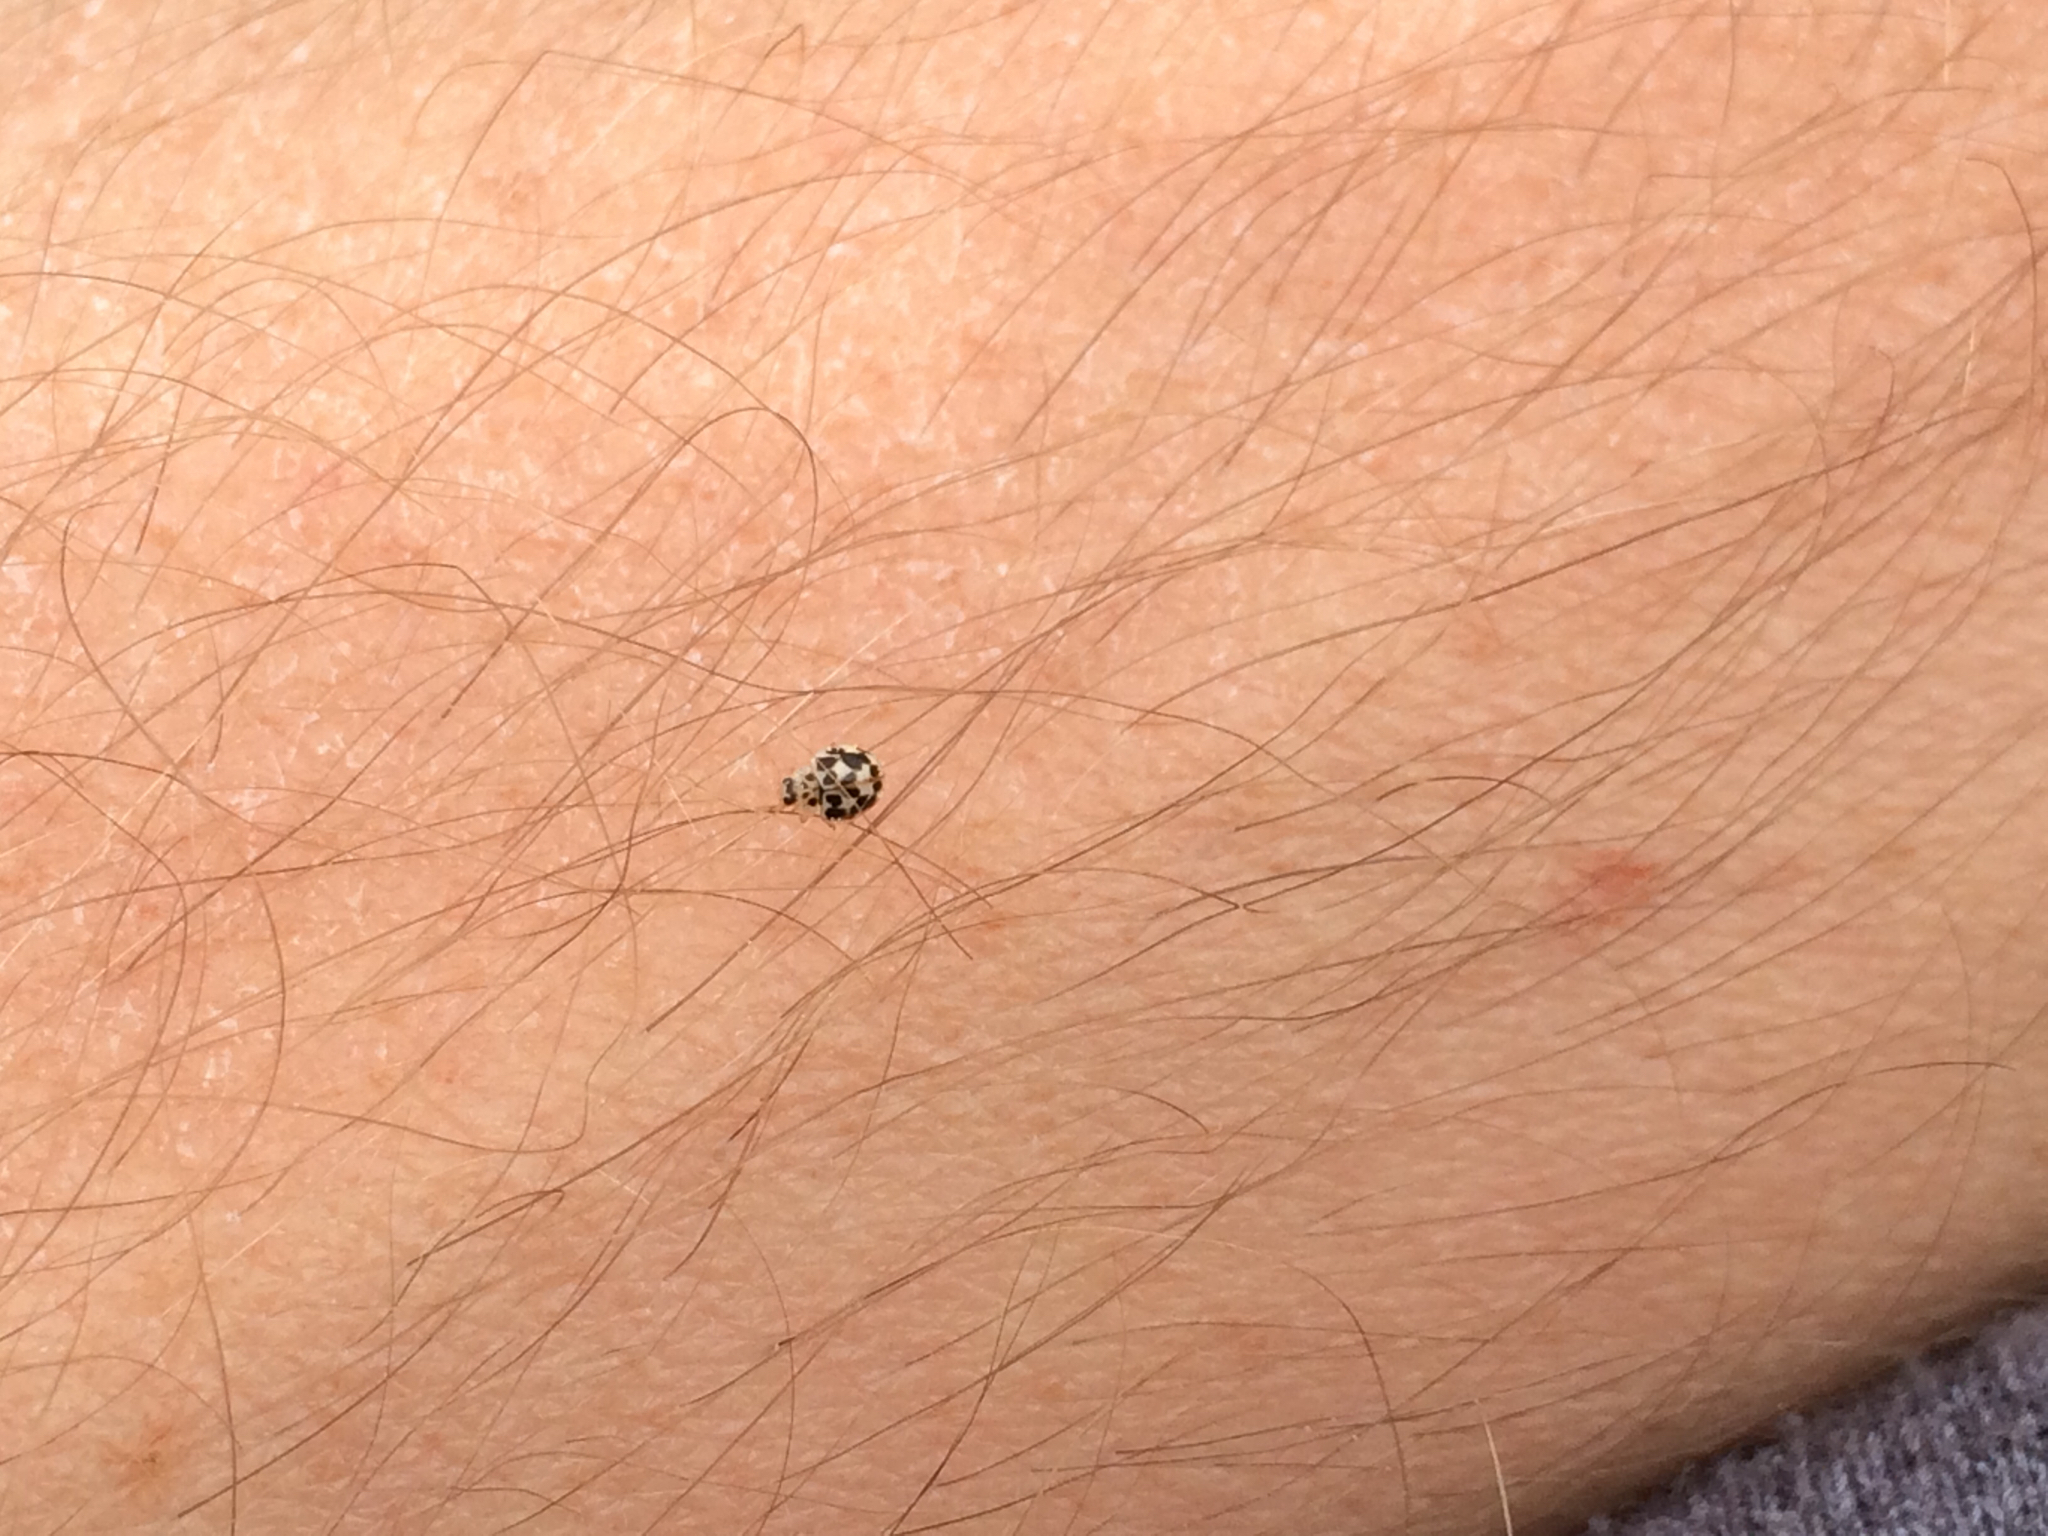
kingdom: Animalia
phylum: Arthropoda
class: Insecta
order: Coleoptera
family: Coccinellidae
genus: Psyllobora
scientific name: Psyllobora vigintimaculata
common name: Ladybird beetle
